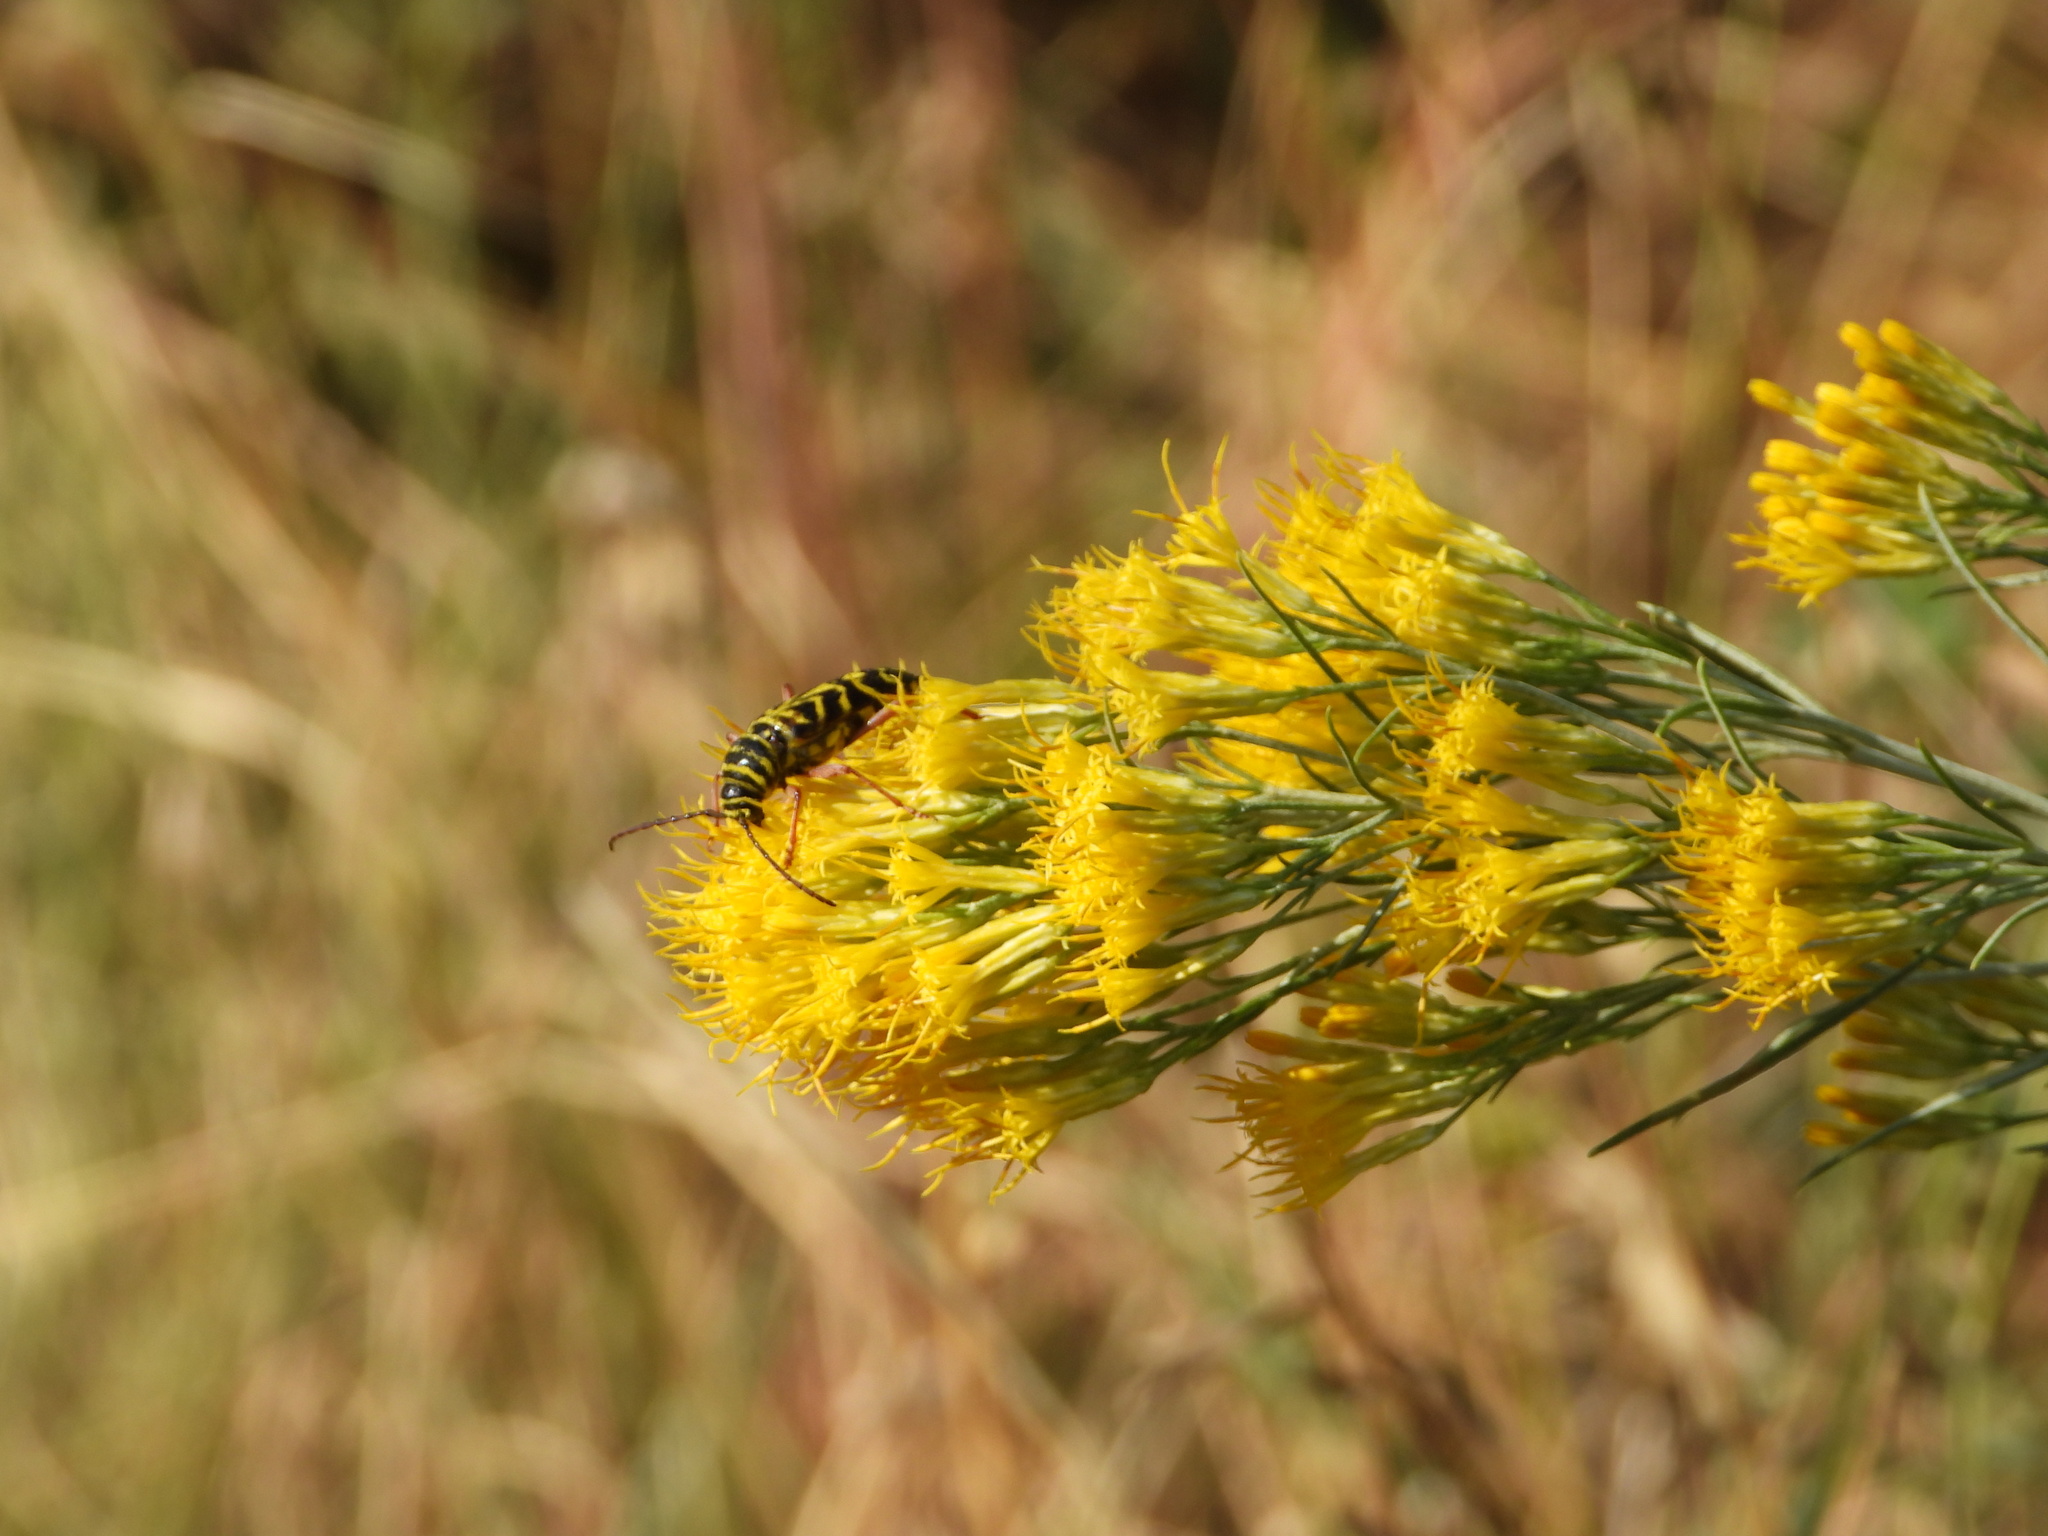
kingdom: Animalia
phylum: Arthropoda
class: Insecta
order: Coleoptera
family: Cerambycidae
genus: Megacyllene
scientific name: Megacyllene robiniae
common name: Locust borer
